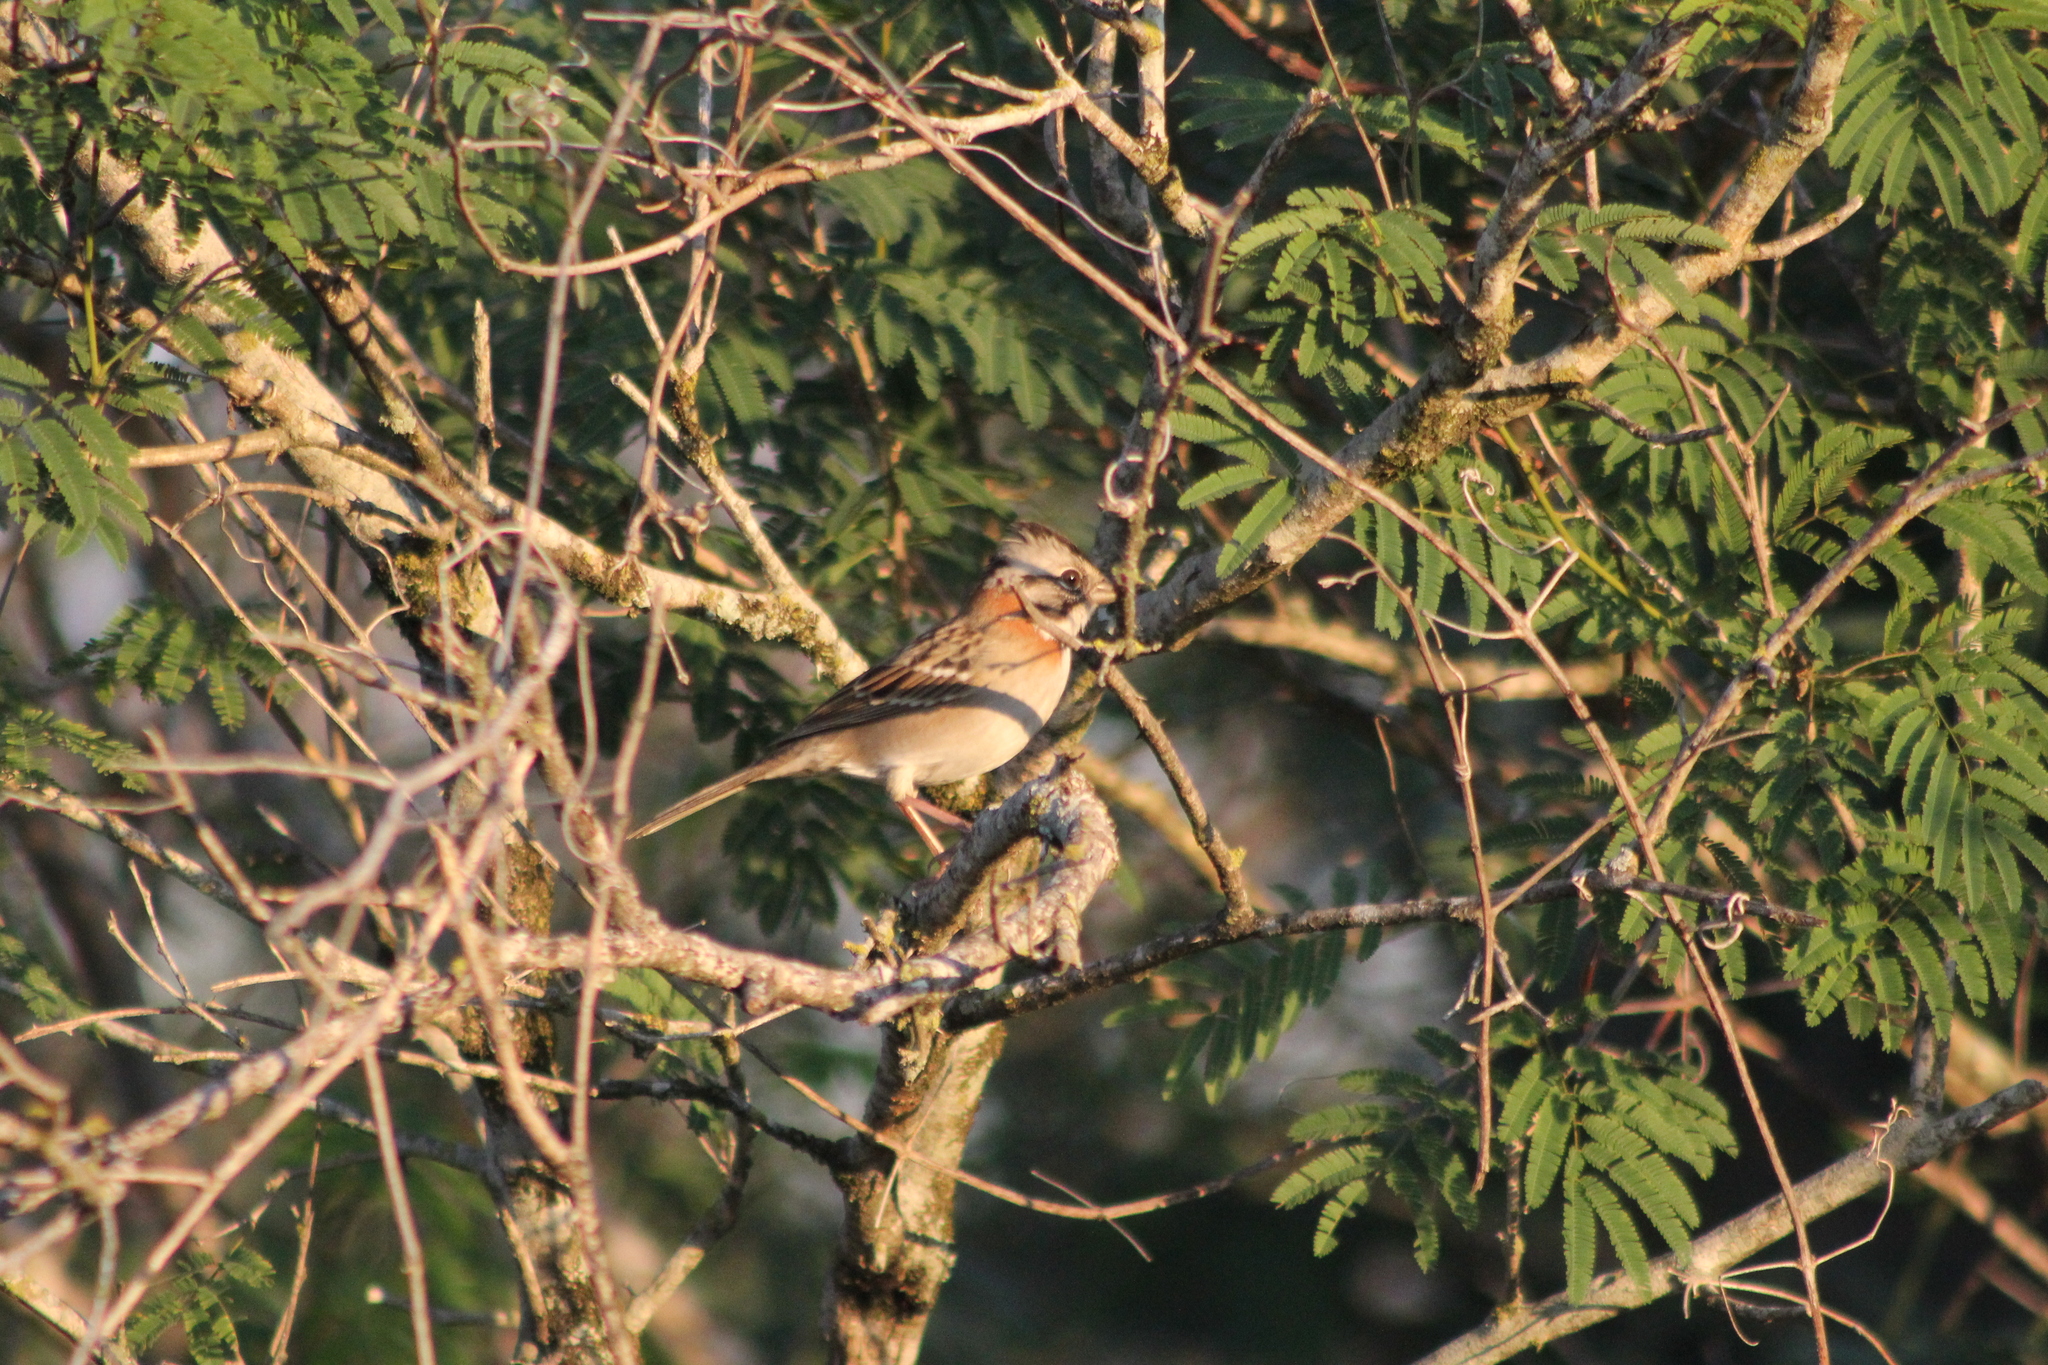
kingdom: Animalia
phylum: Chordata
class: Aves
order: Passeriformes
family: Passerellidae
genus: Zonotrichia
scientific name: Zonotrichia capensis
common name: Rufous-collared sparrow
